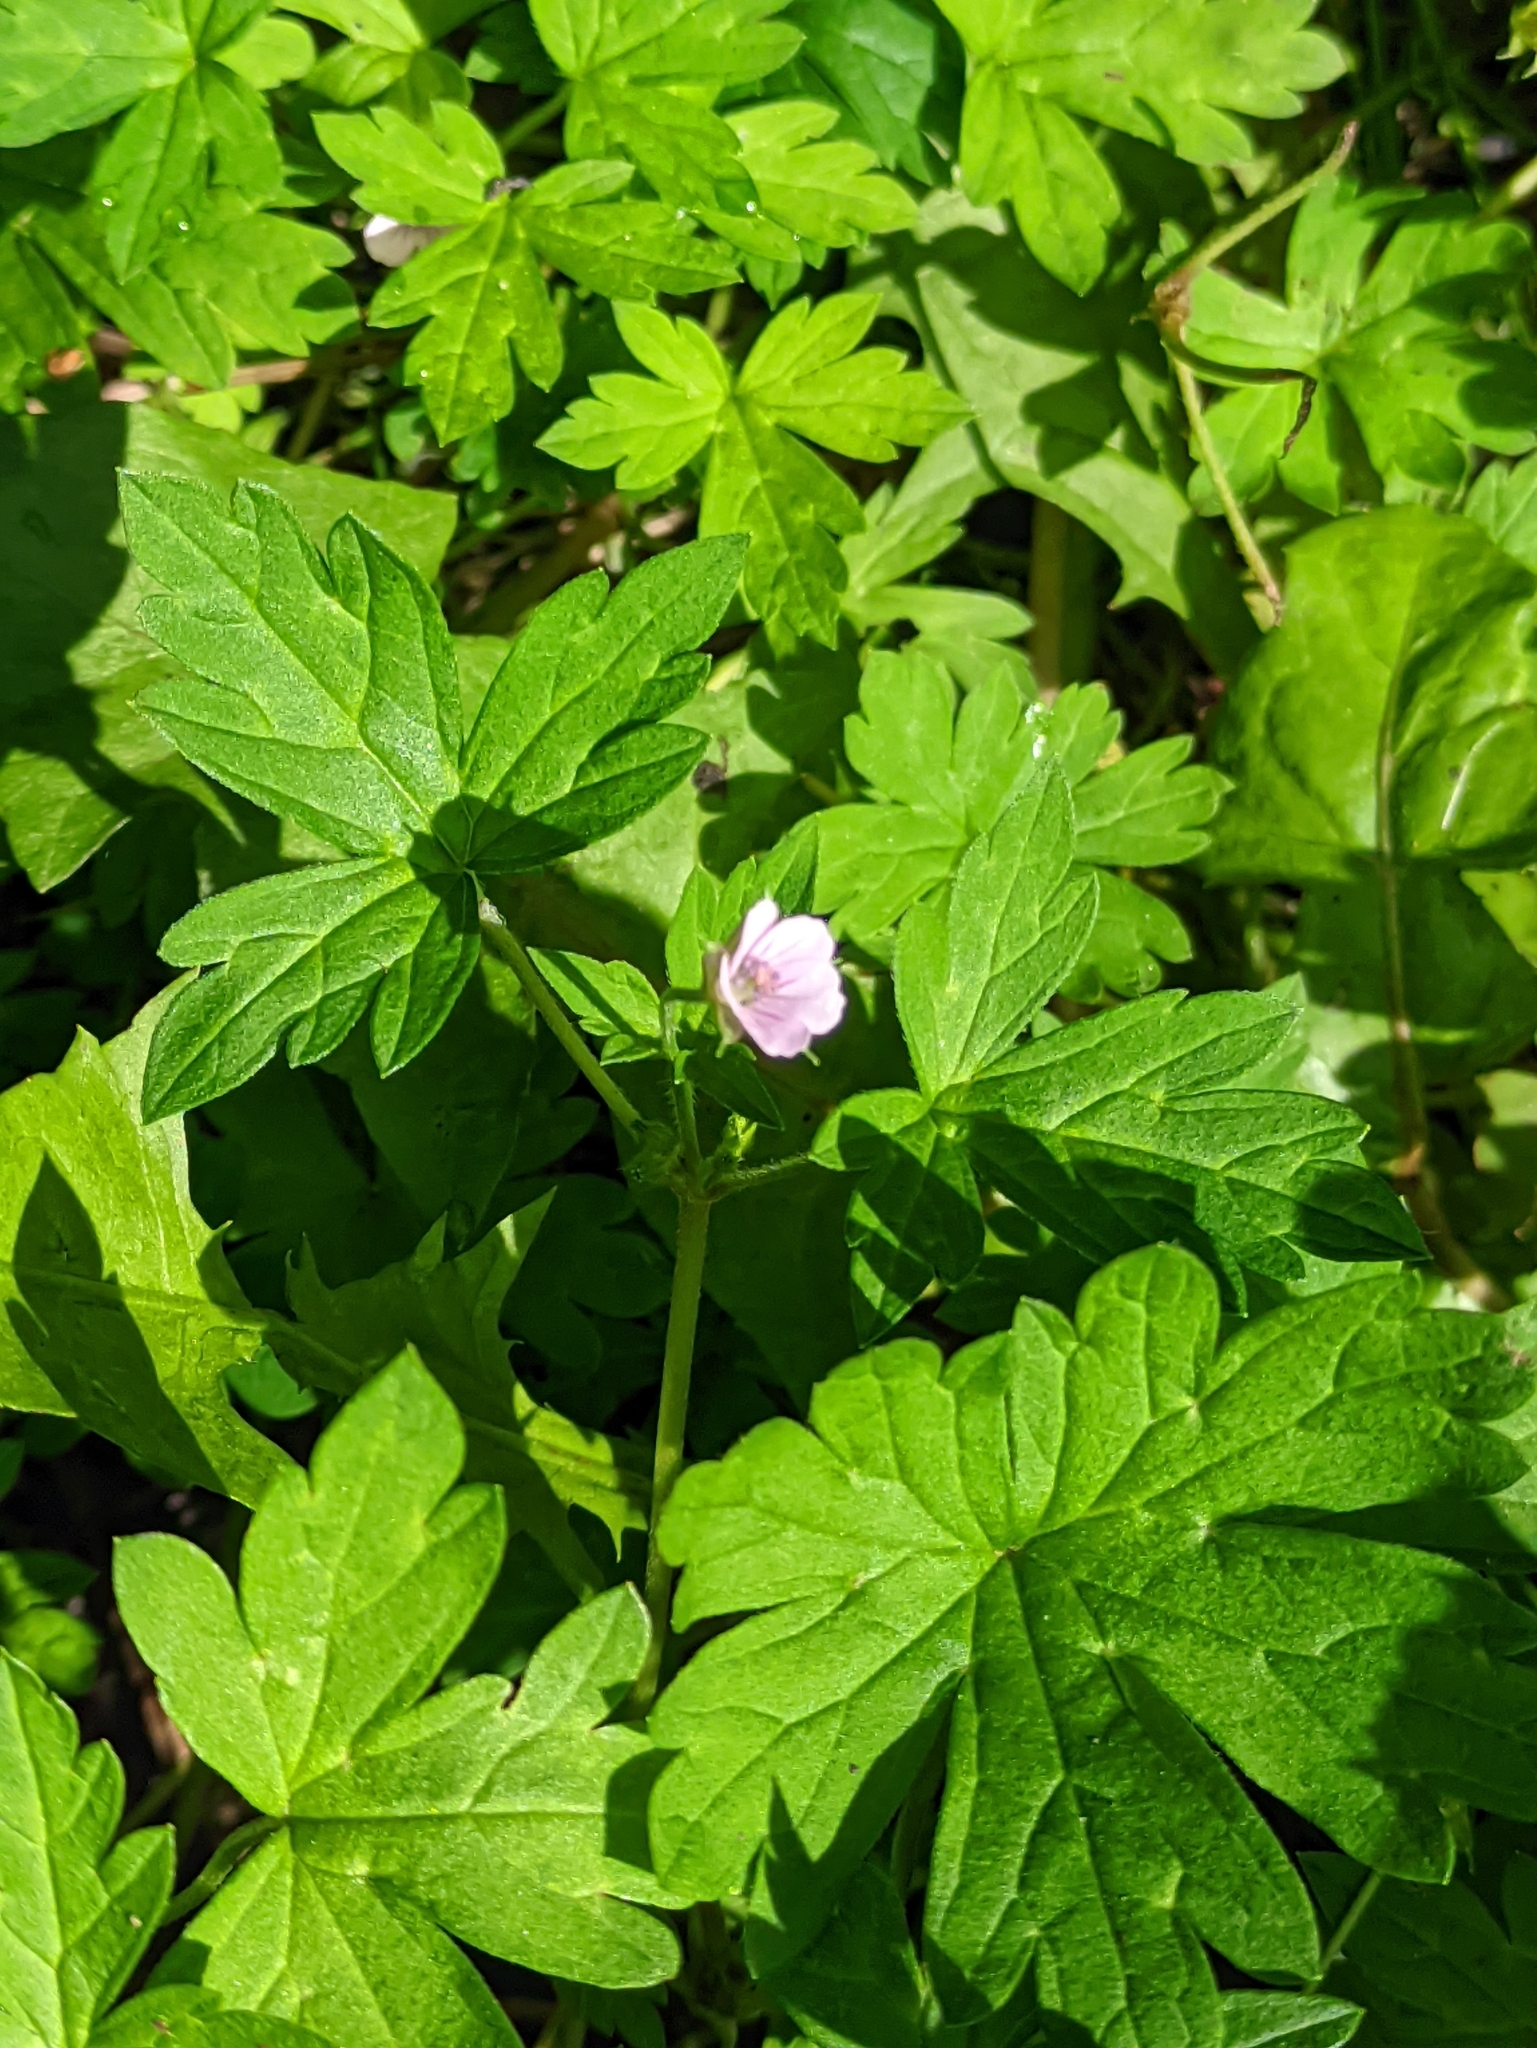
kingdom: Plantae
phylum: Tracheophyta
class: Magnoliopsida
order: Geraniales
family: Geraniaceae
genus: Geranium
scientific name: Geranium sibiricum
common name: Siberian crane's-bill
